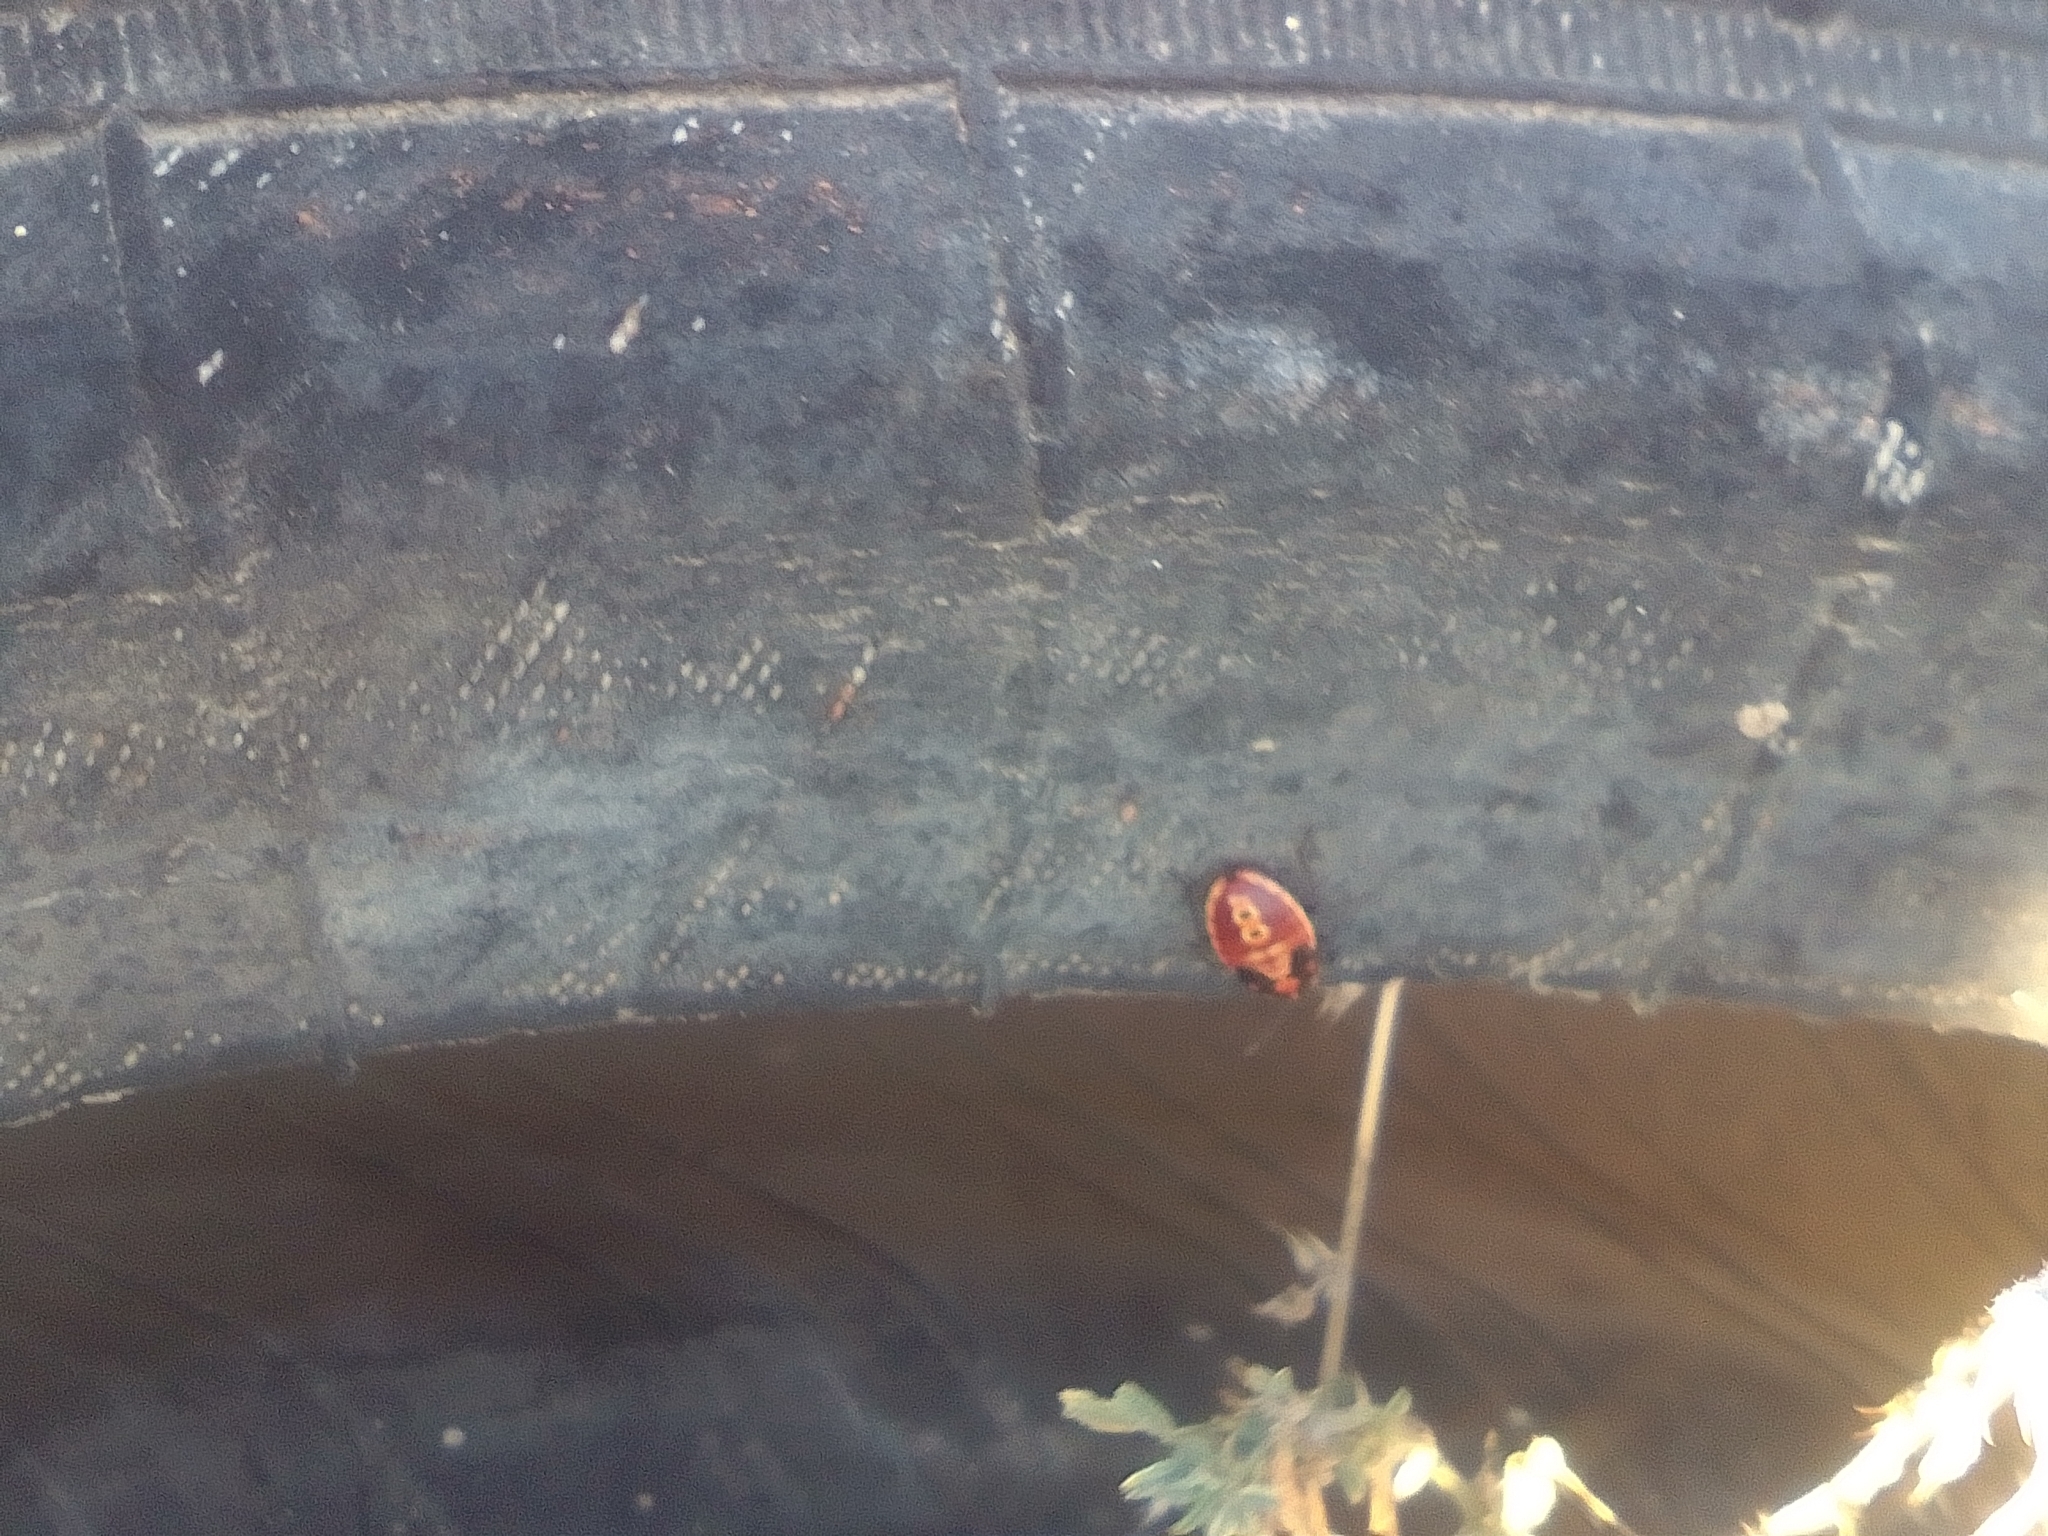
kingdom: Animalia
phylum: Arthropoda
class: Insecta
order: Hemiptera
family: Lygaeidae
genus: Spilostethus
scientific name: Spilostethus pandurus
